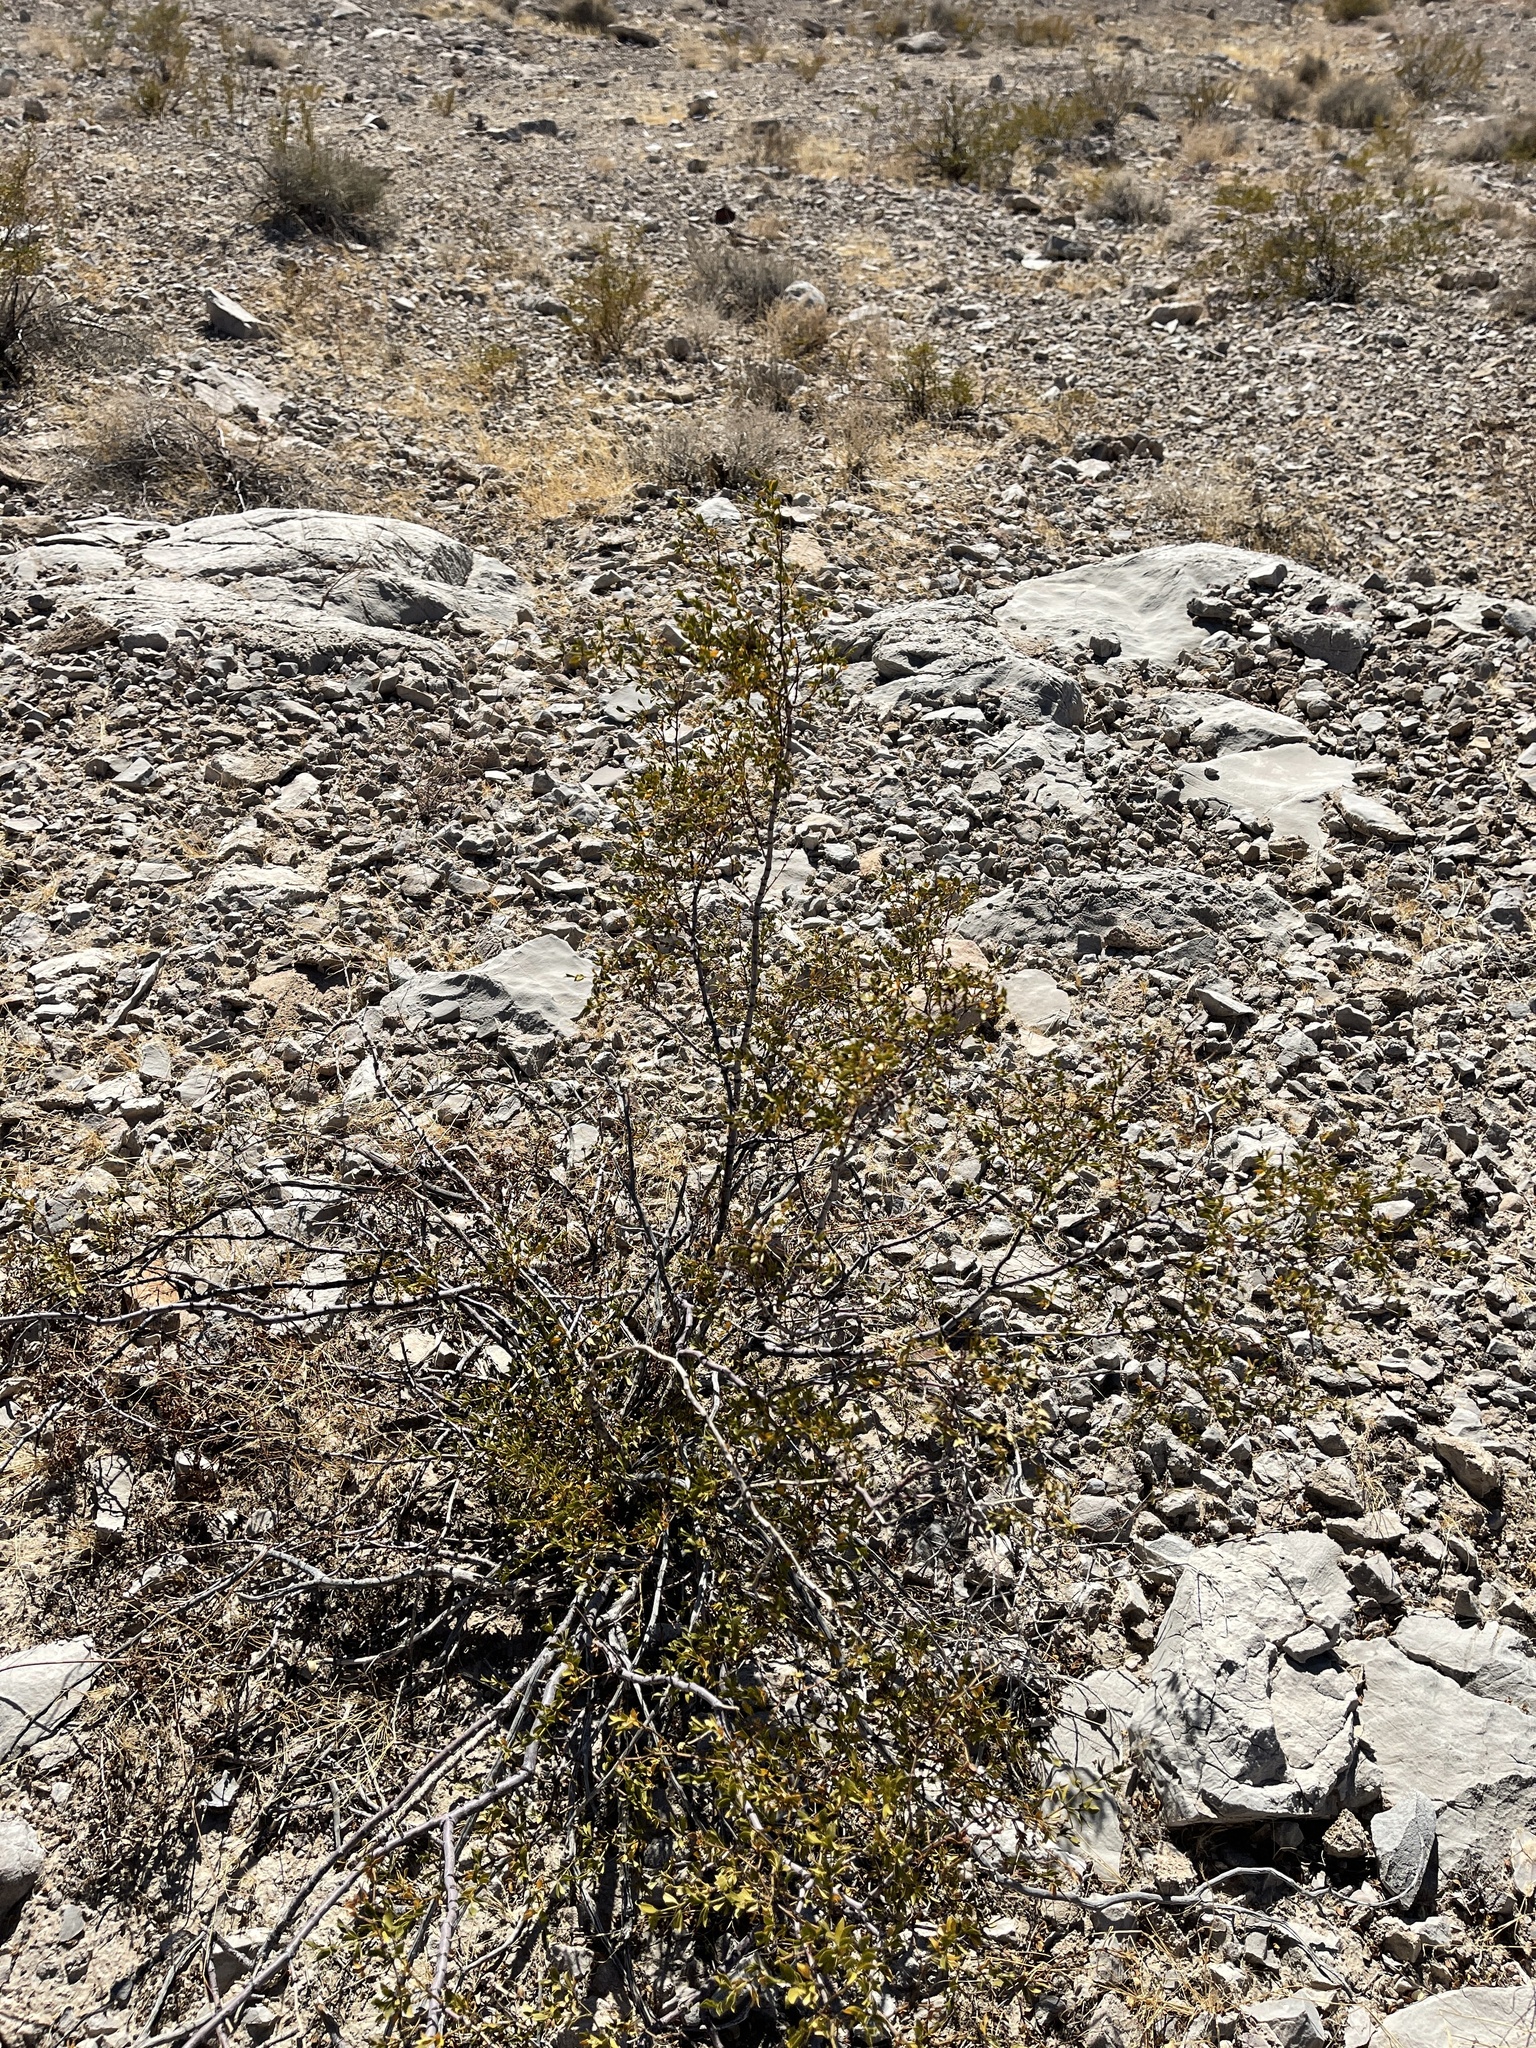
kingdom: Plantae
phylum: Tracheophyta
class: Magnoliopsida
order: Zygophyllales
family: Zygophyllaceae
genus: Larrea
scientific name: Larrea tridentata
